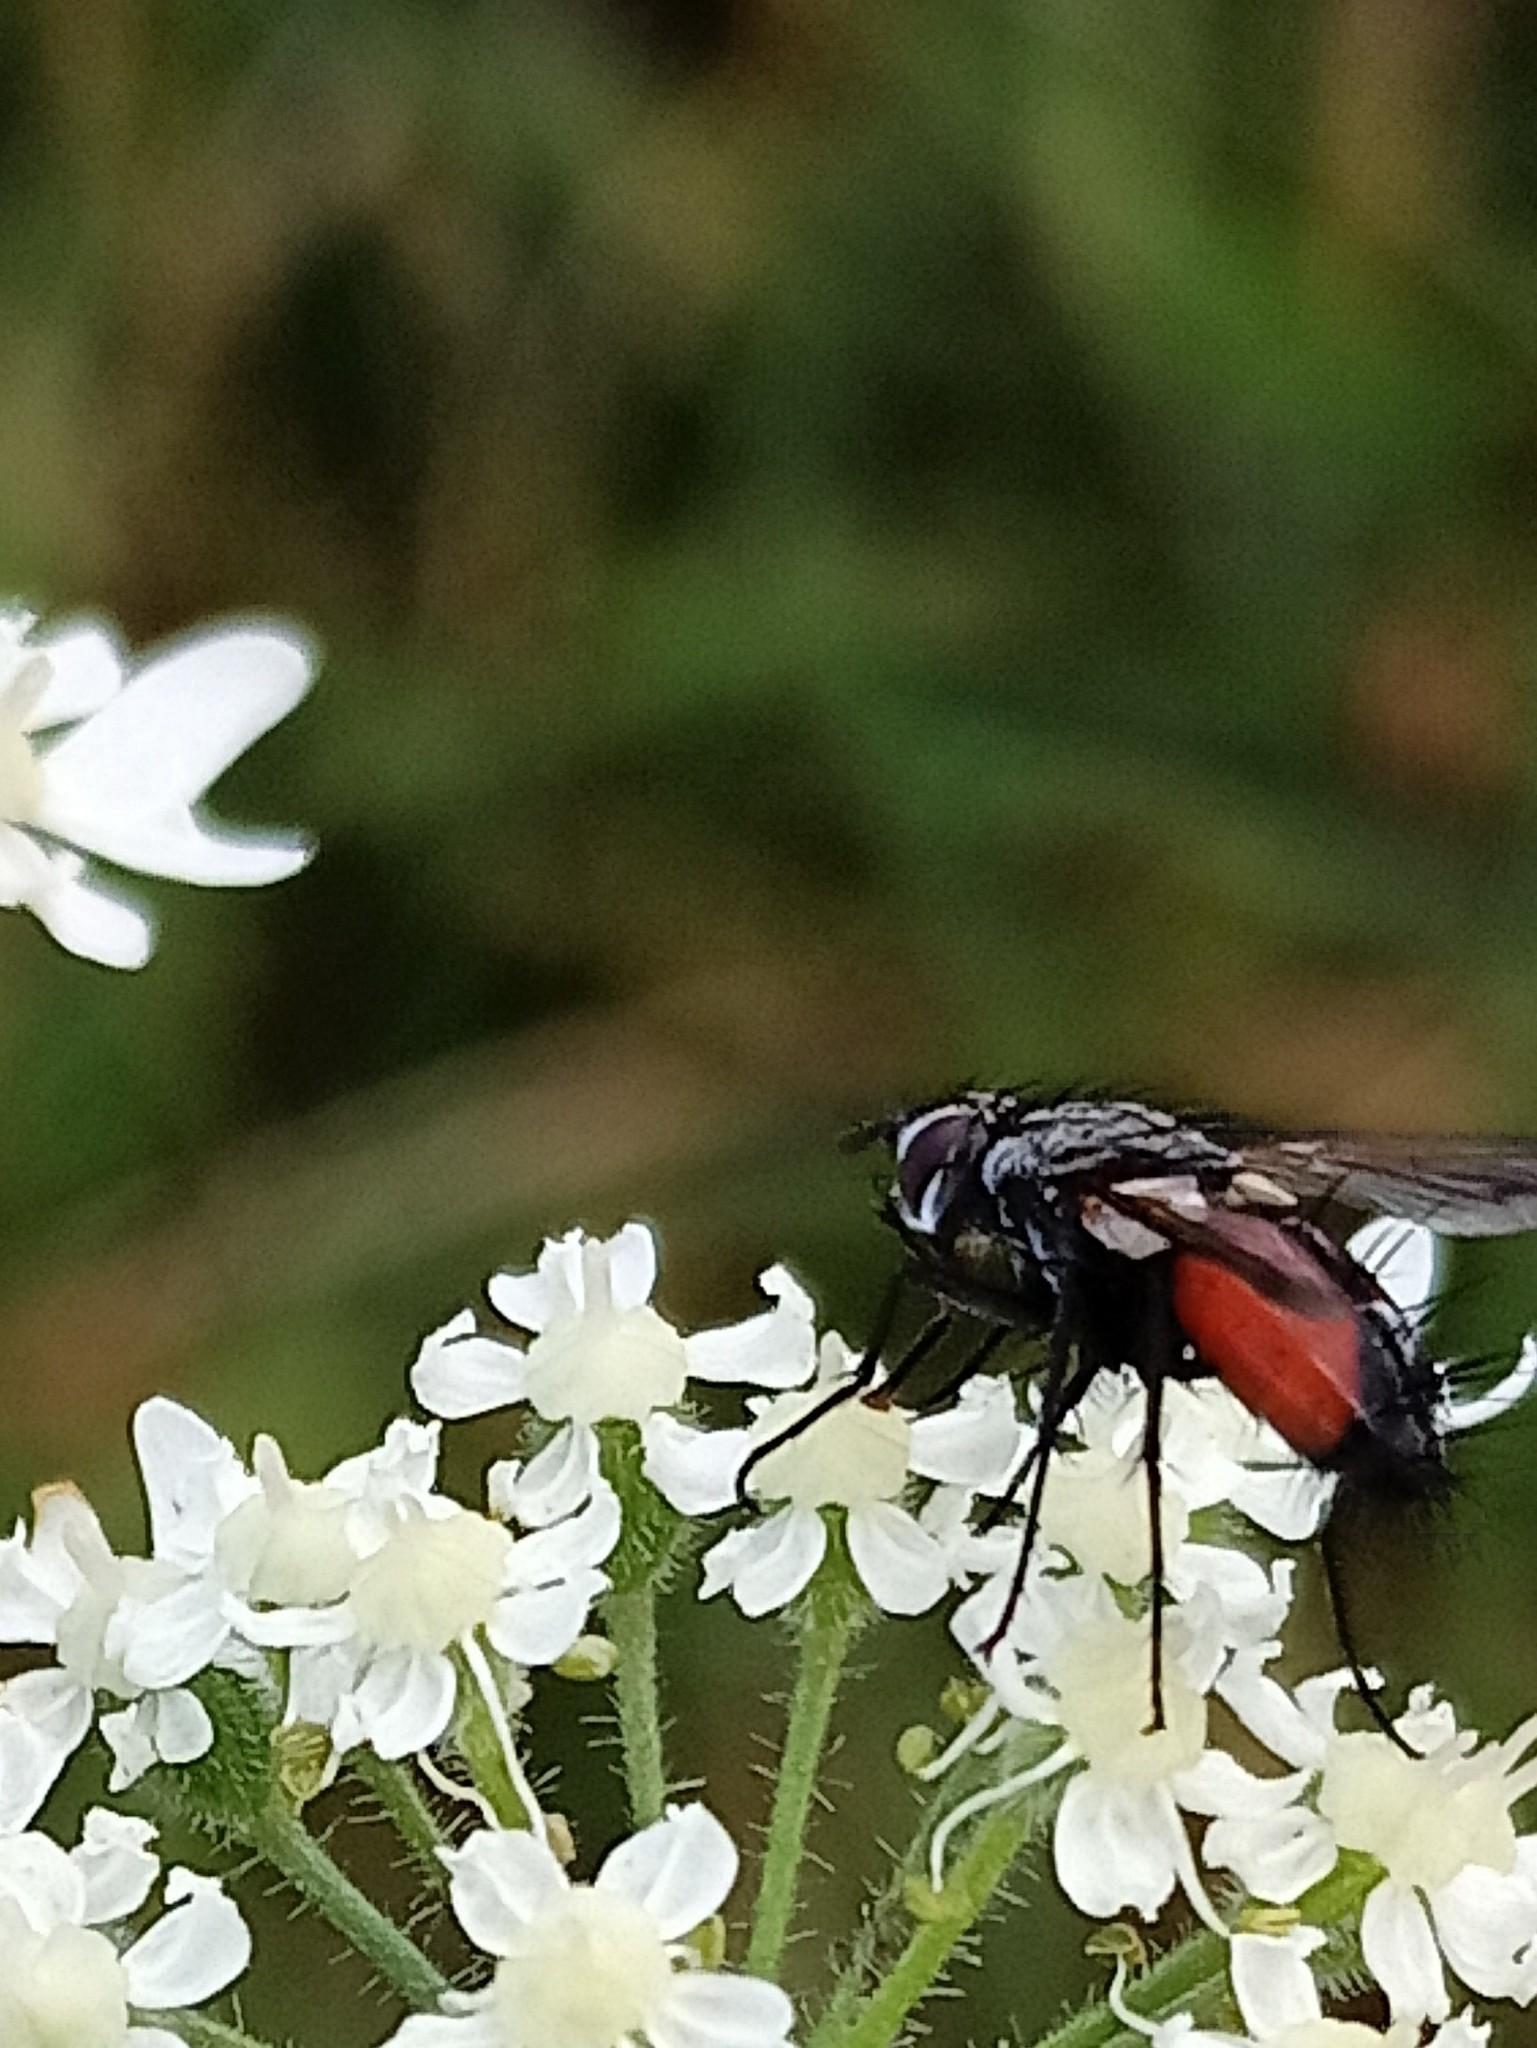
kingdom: Animalia
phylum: Arthropoda
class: Insecta
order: Diptera
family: Tachinidae
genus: Eriothrix
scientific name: Eriothrix rufomaculatus
